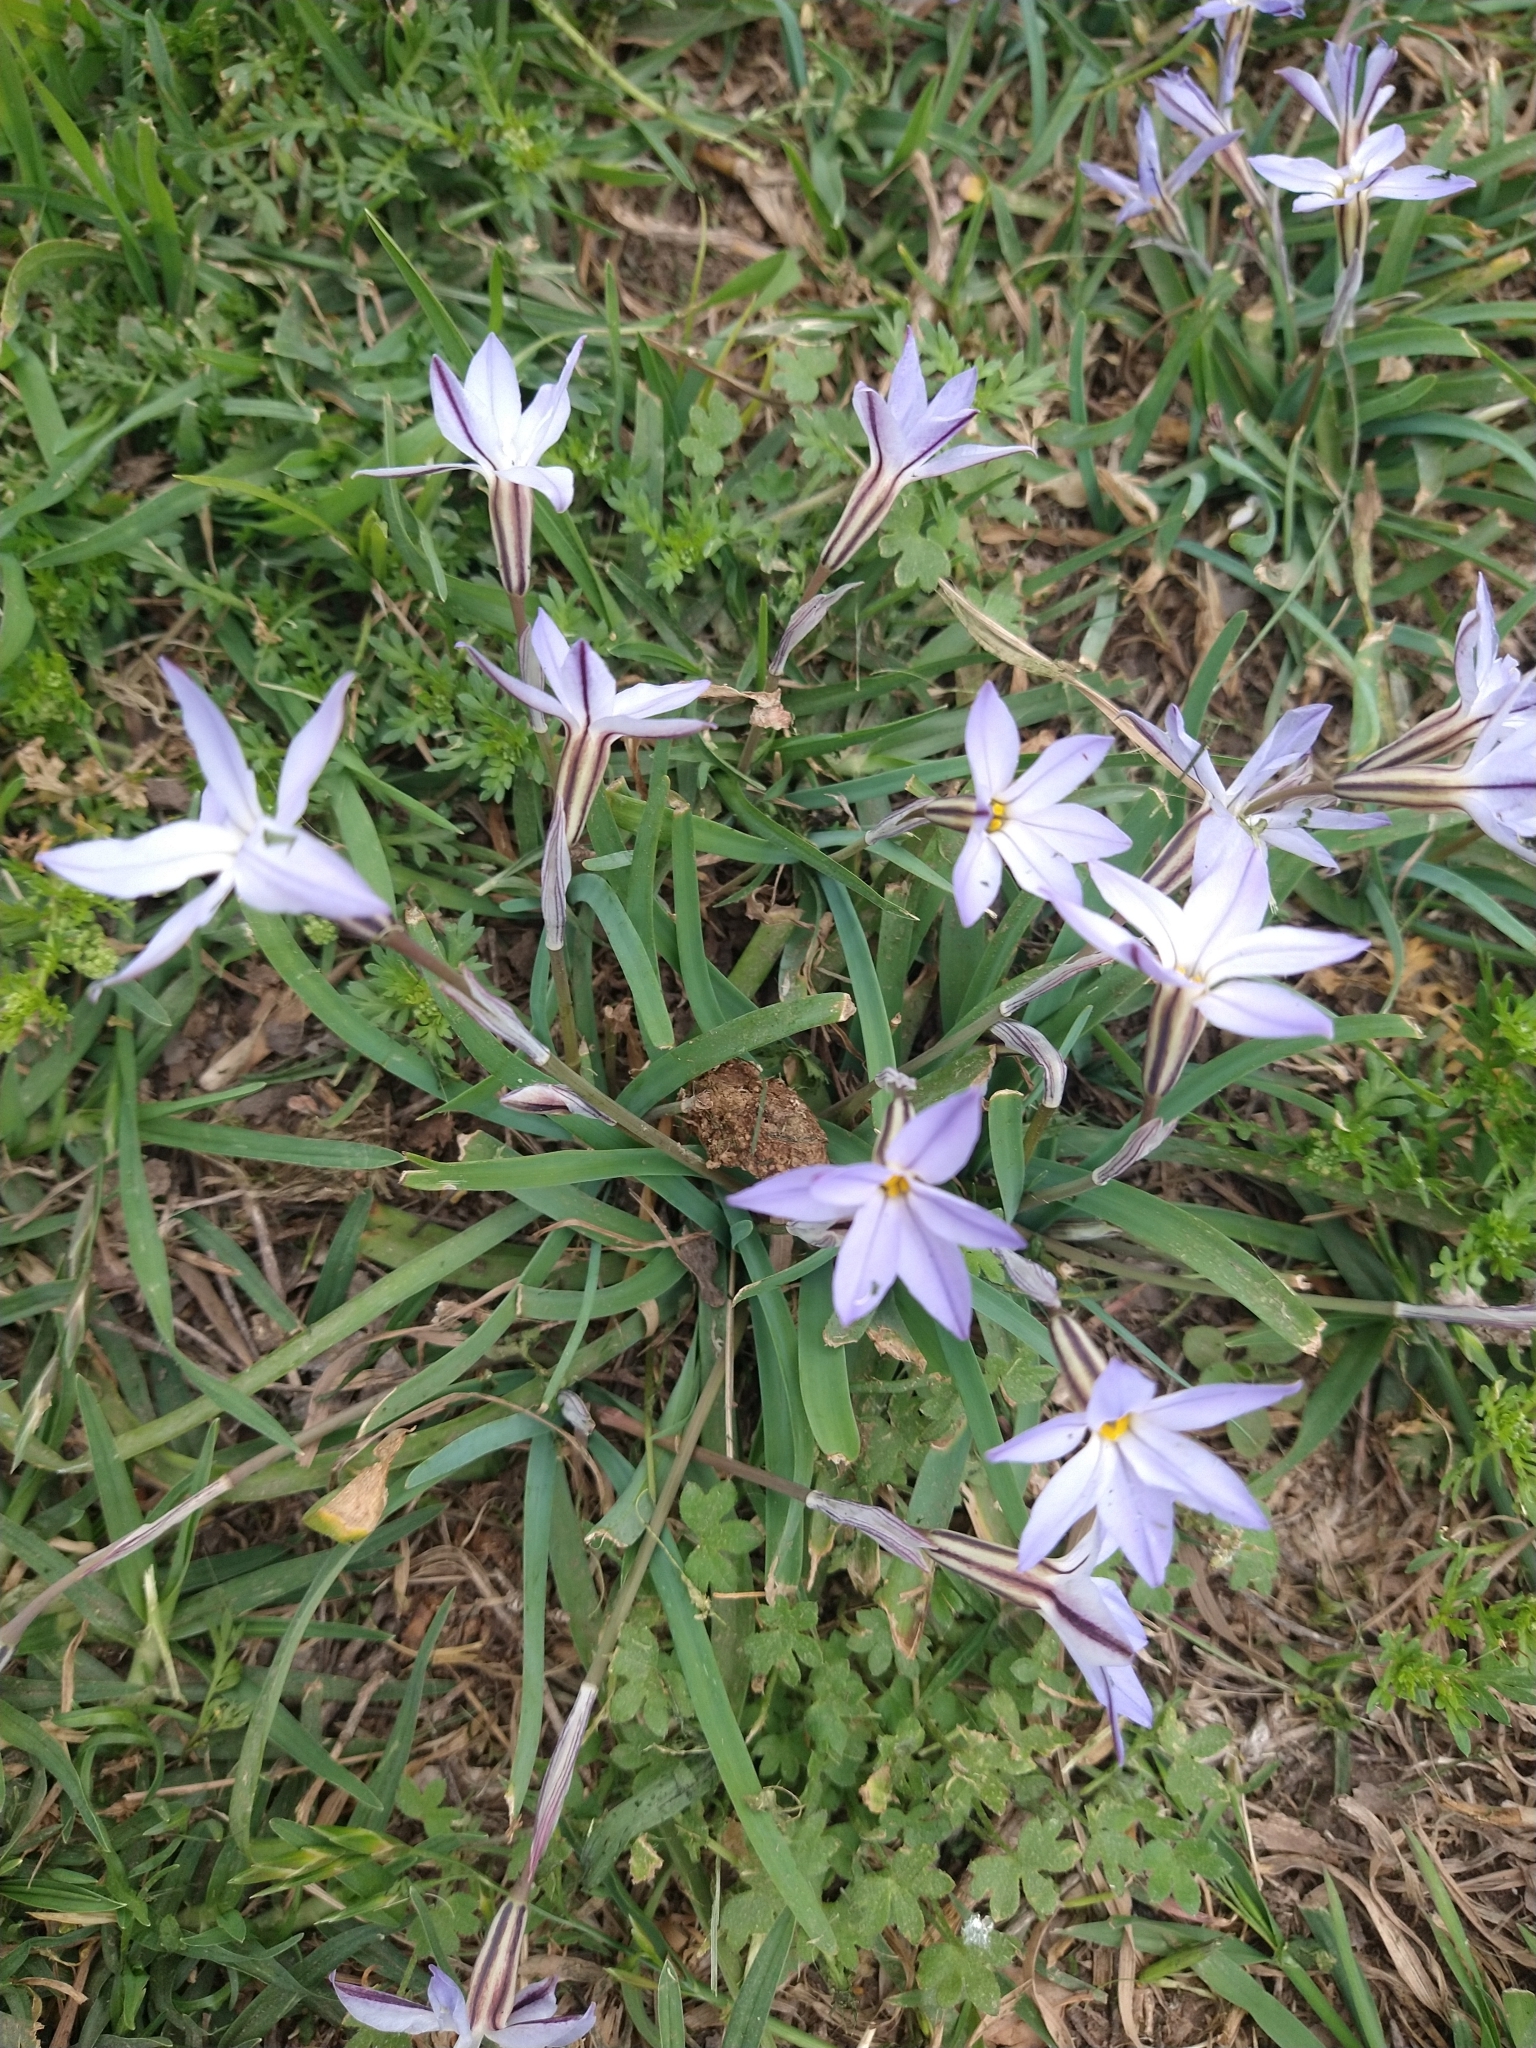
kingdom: Plantae
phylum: Tracheophyta
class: Liliopsida
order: Asparagales
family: Amaryllidaceae
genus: Ipheion
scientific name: Ipheion uniflorum
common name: Spring starflower
